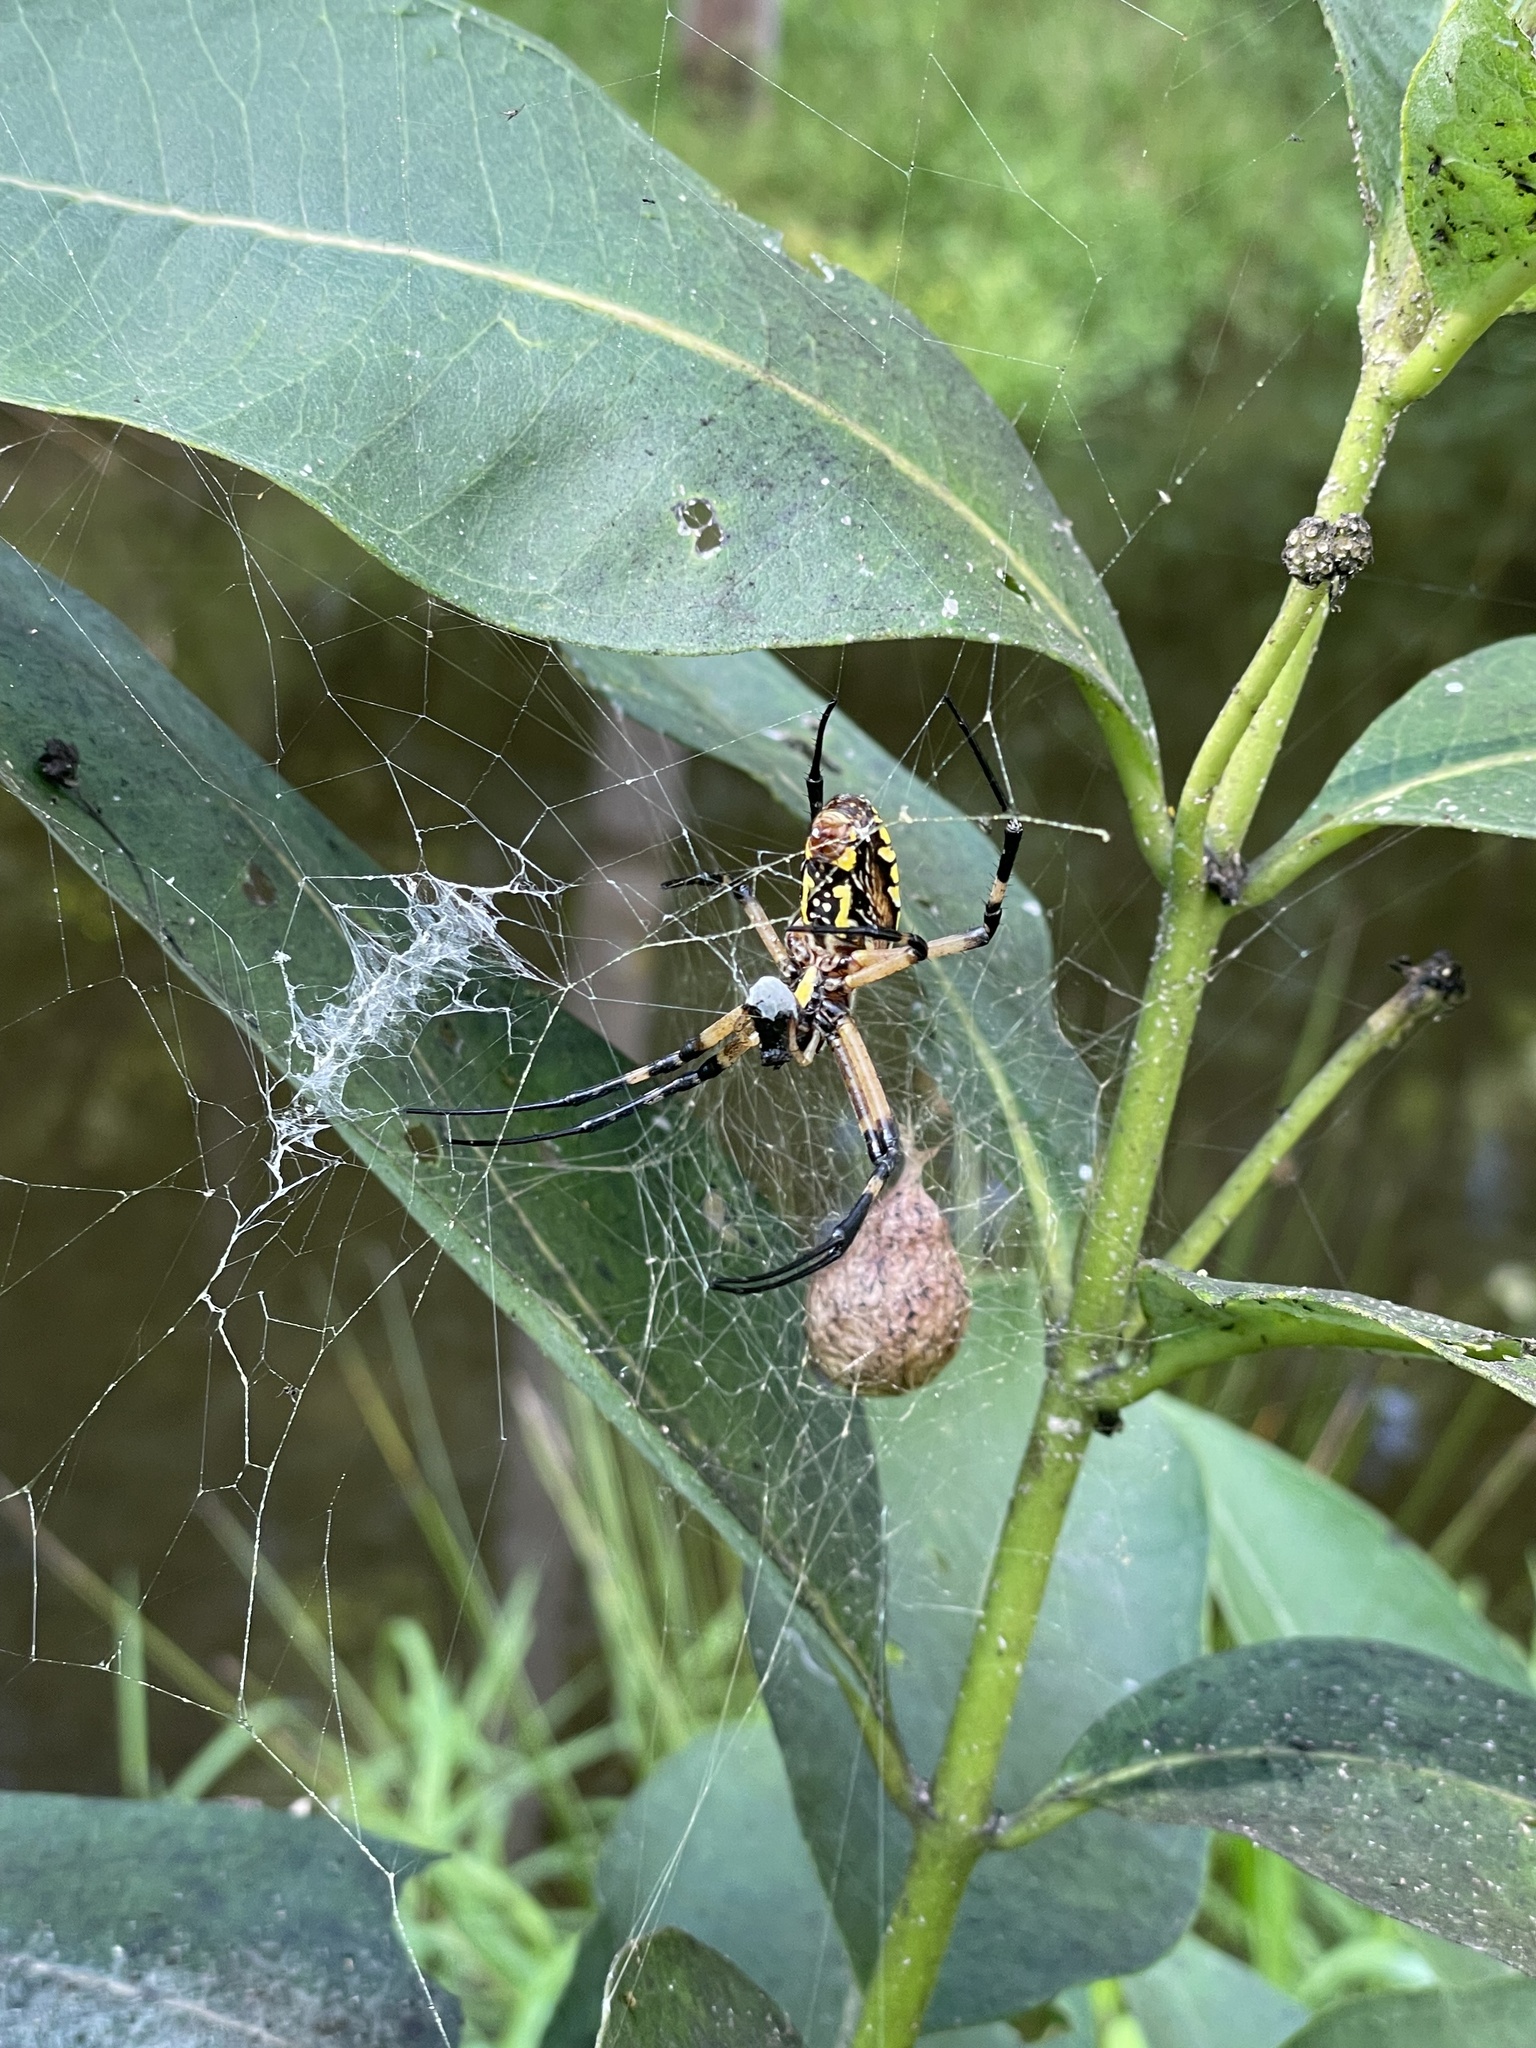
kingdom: Animalia
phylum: Arthropoda
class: Arachnida
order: Araneae
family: Araneidae
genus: Argiope
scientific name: Argiope aurantia
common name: Orb weavers
